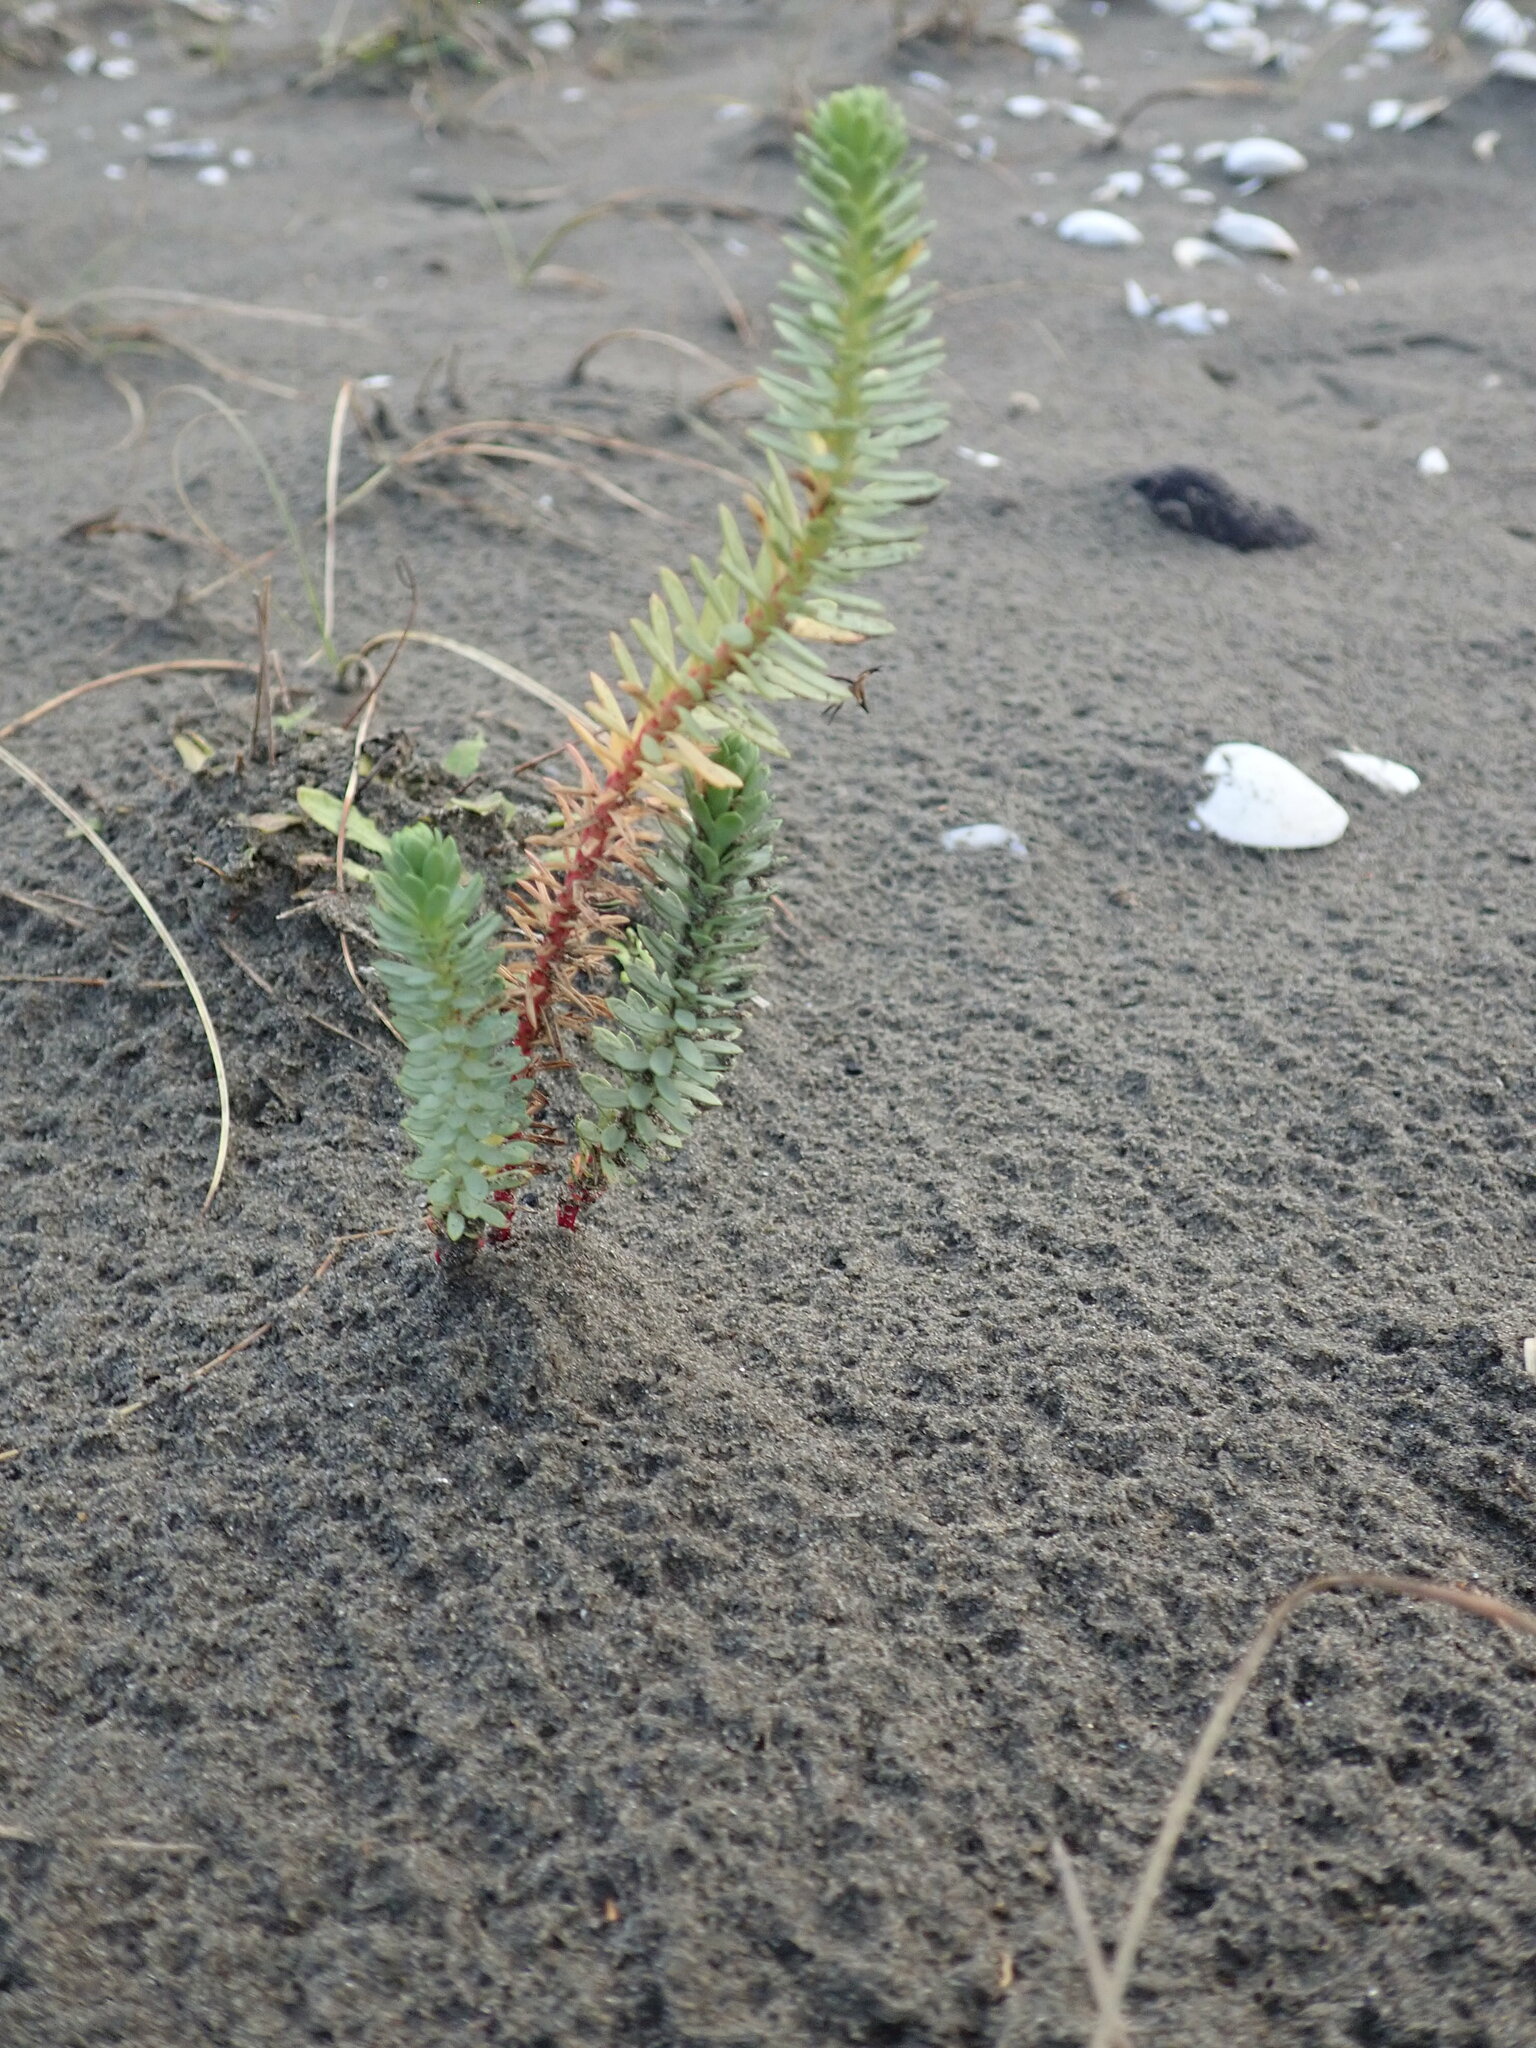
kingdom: Plantae
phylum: Tracheophyta
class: Magnoliopsida
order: Malpighiales
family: Euphorbiaceae
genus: Euphorbia
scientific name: Euphorbia paralias
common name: Sea spurge
